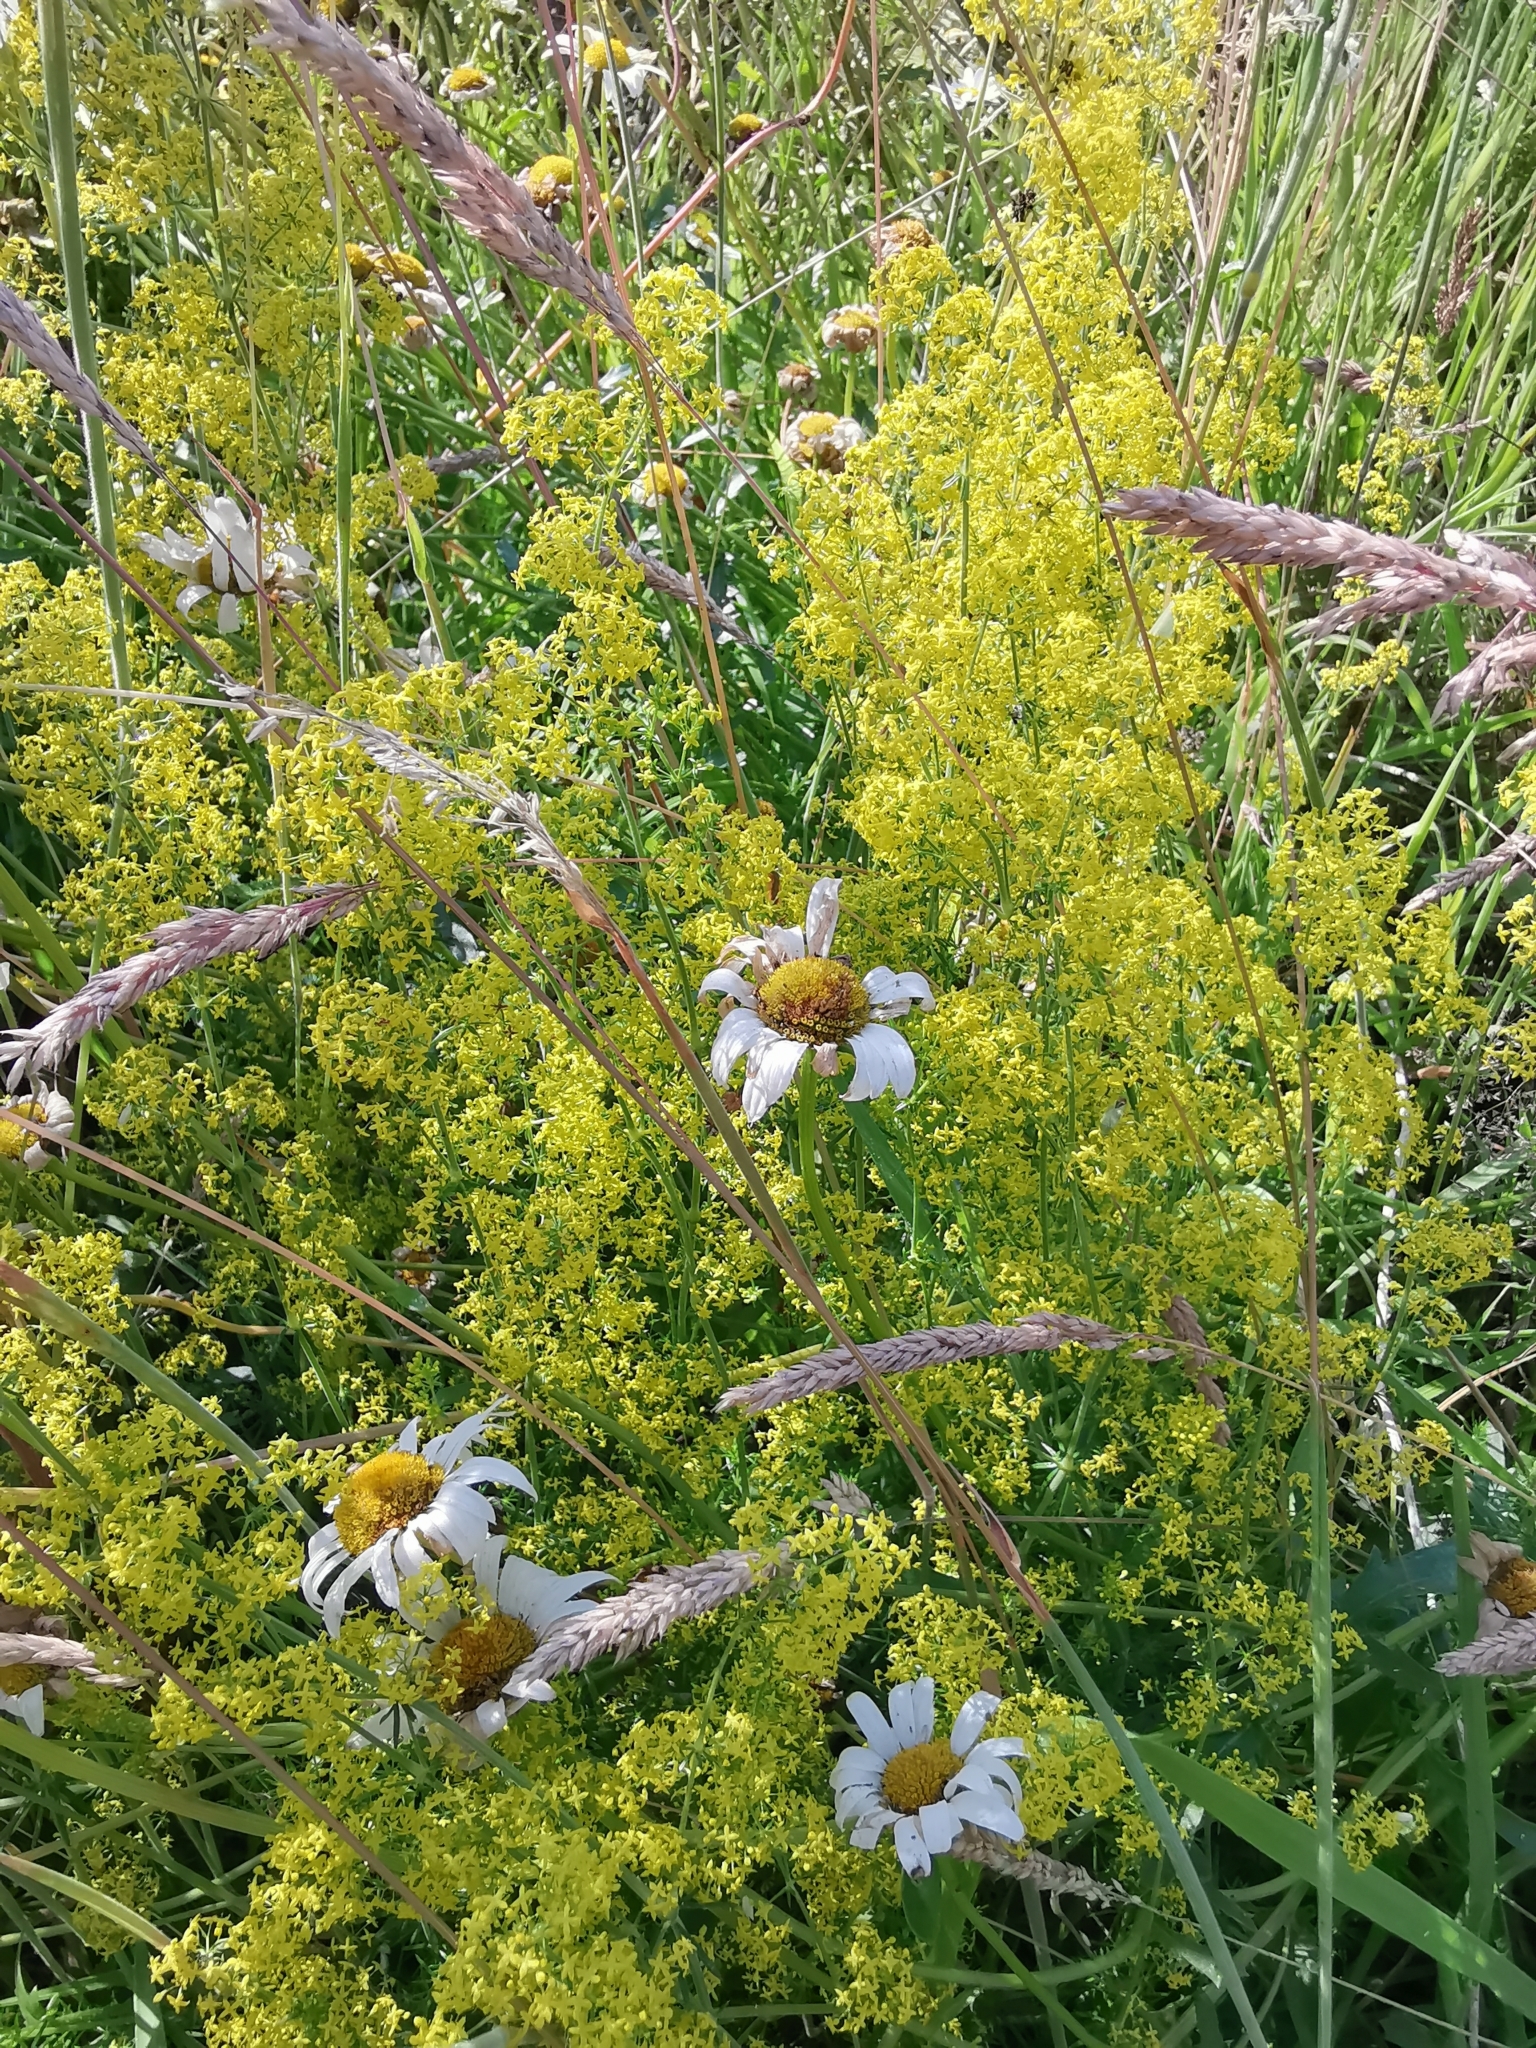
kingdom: Plantae
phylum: Tracheophyta
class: Magnoliopsida
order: Gentianales
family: Rubiaceae
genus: Galium
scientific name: Galium verum
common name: Lady's bedstraw
